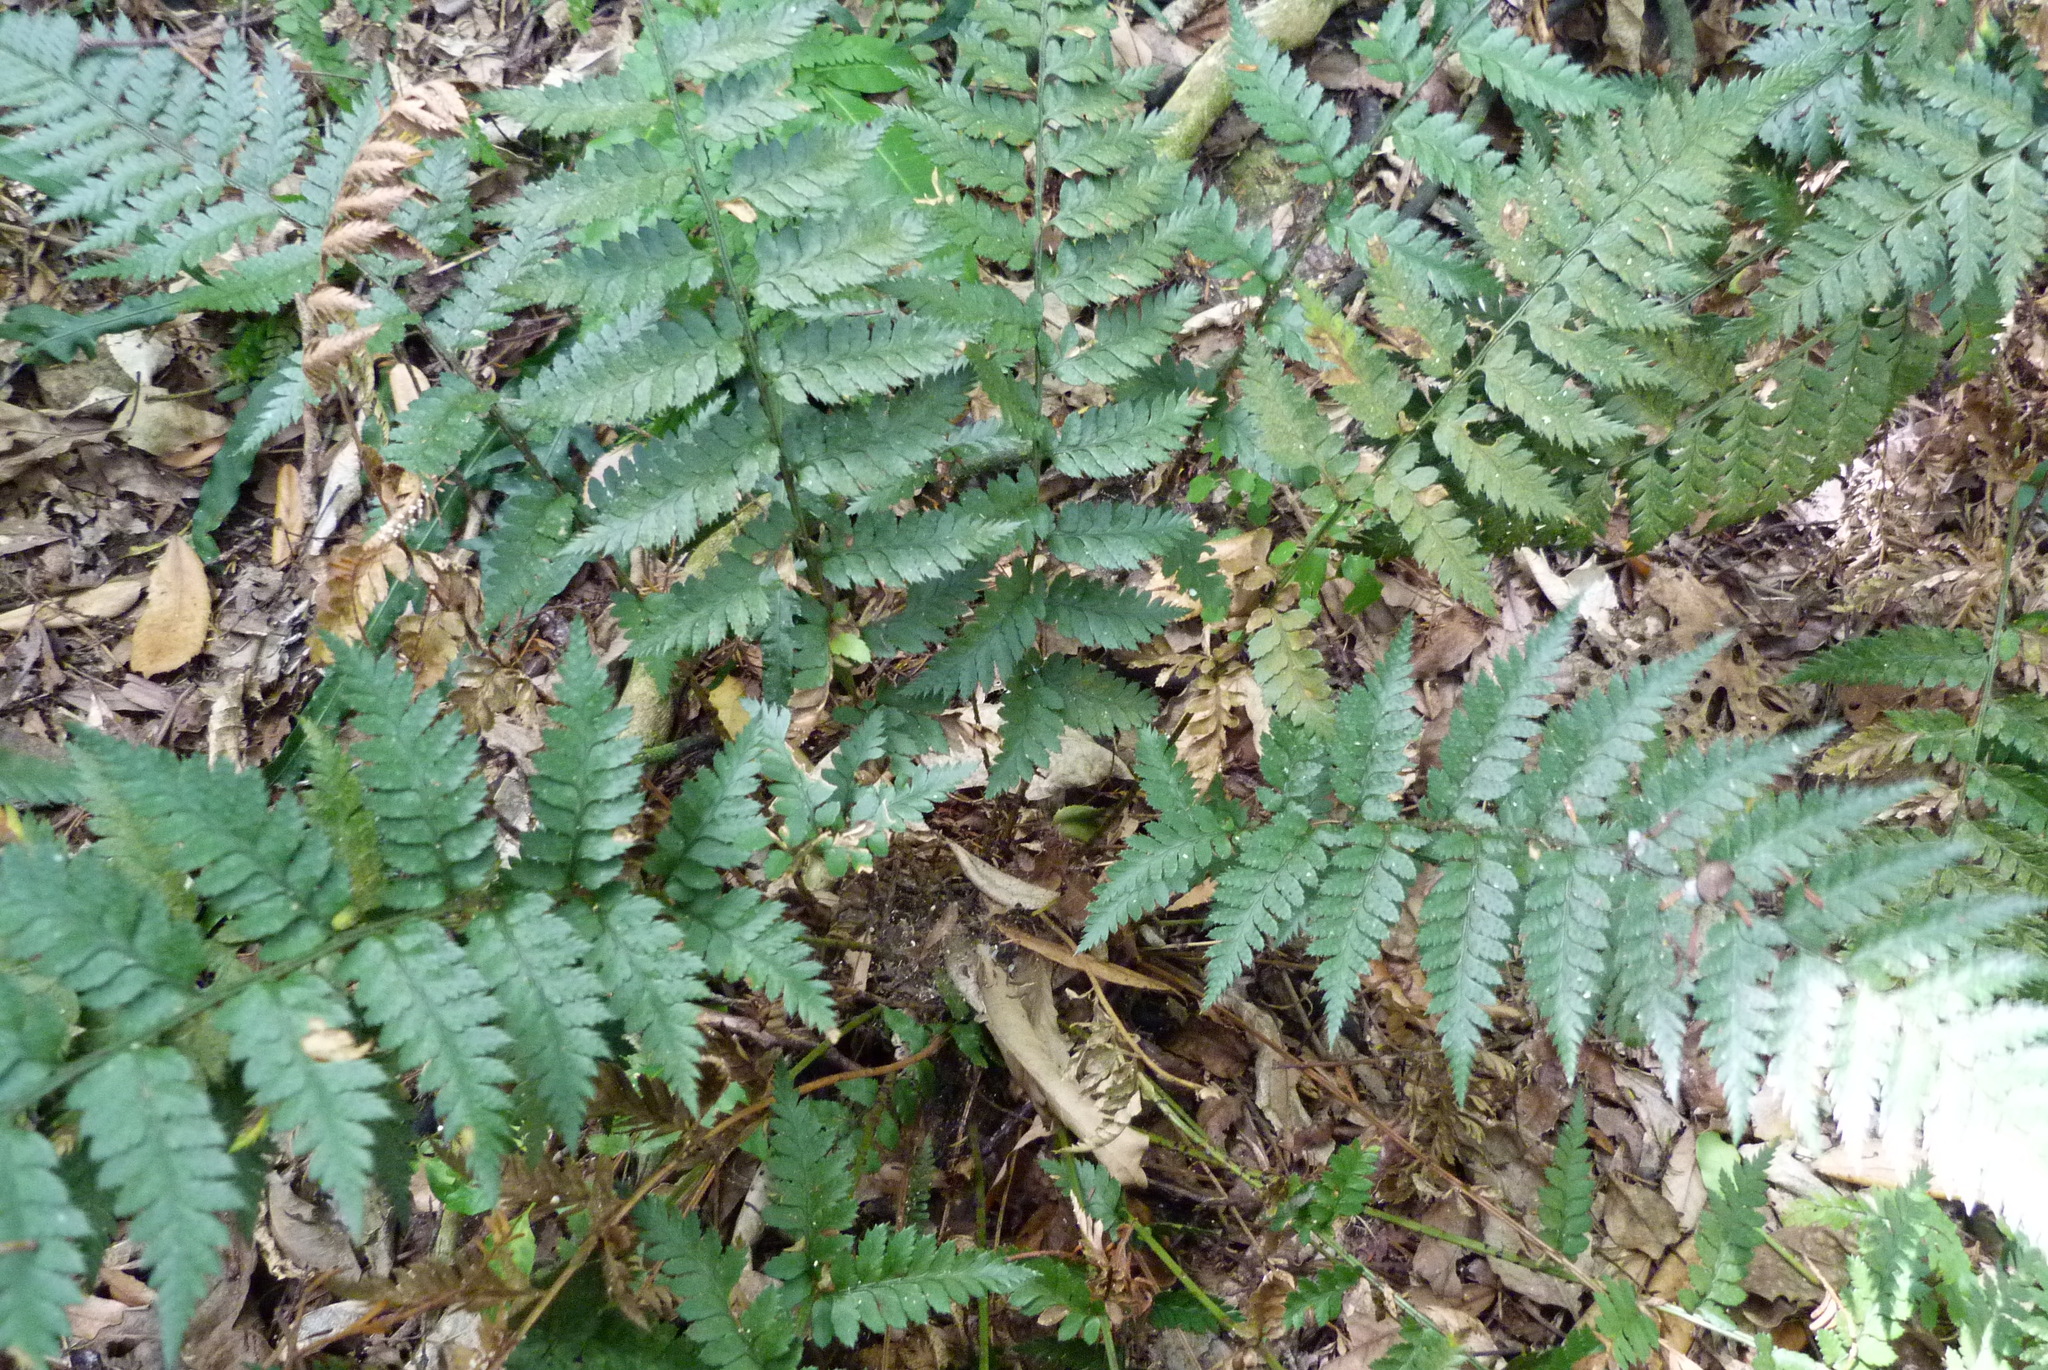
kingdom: Plantae
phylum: Tracheophyta
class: Polypodiopsida
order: Polypodiales
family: Dryopteridaceae
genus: Polystichum
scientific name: Polystichum oculatum
